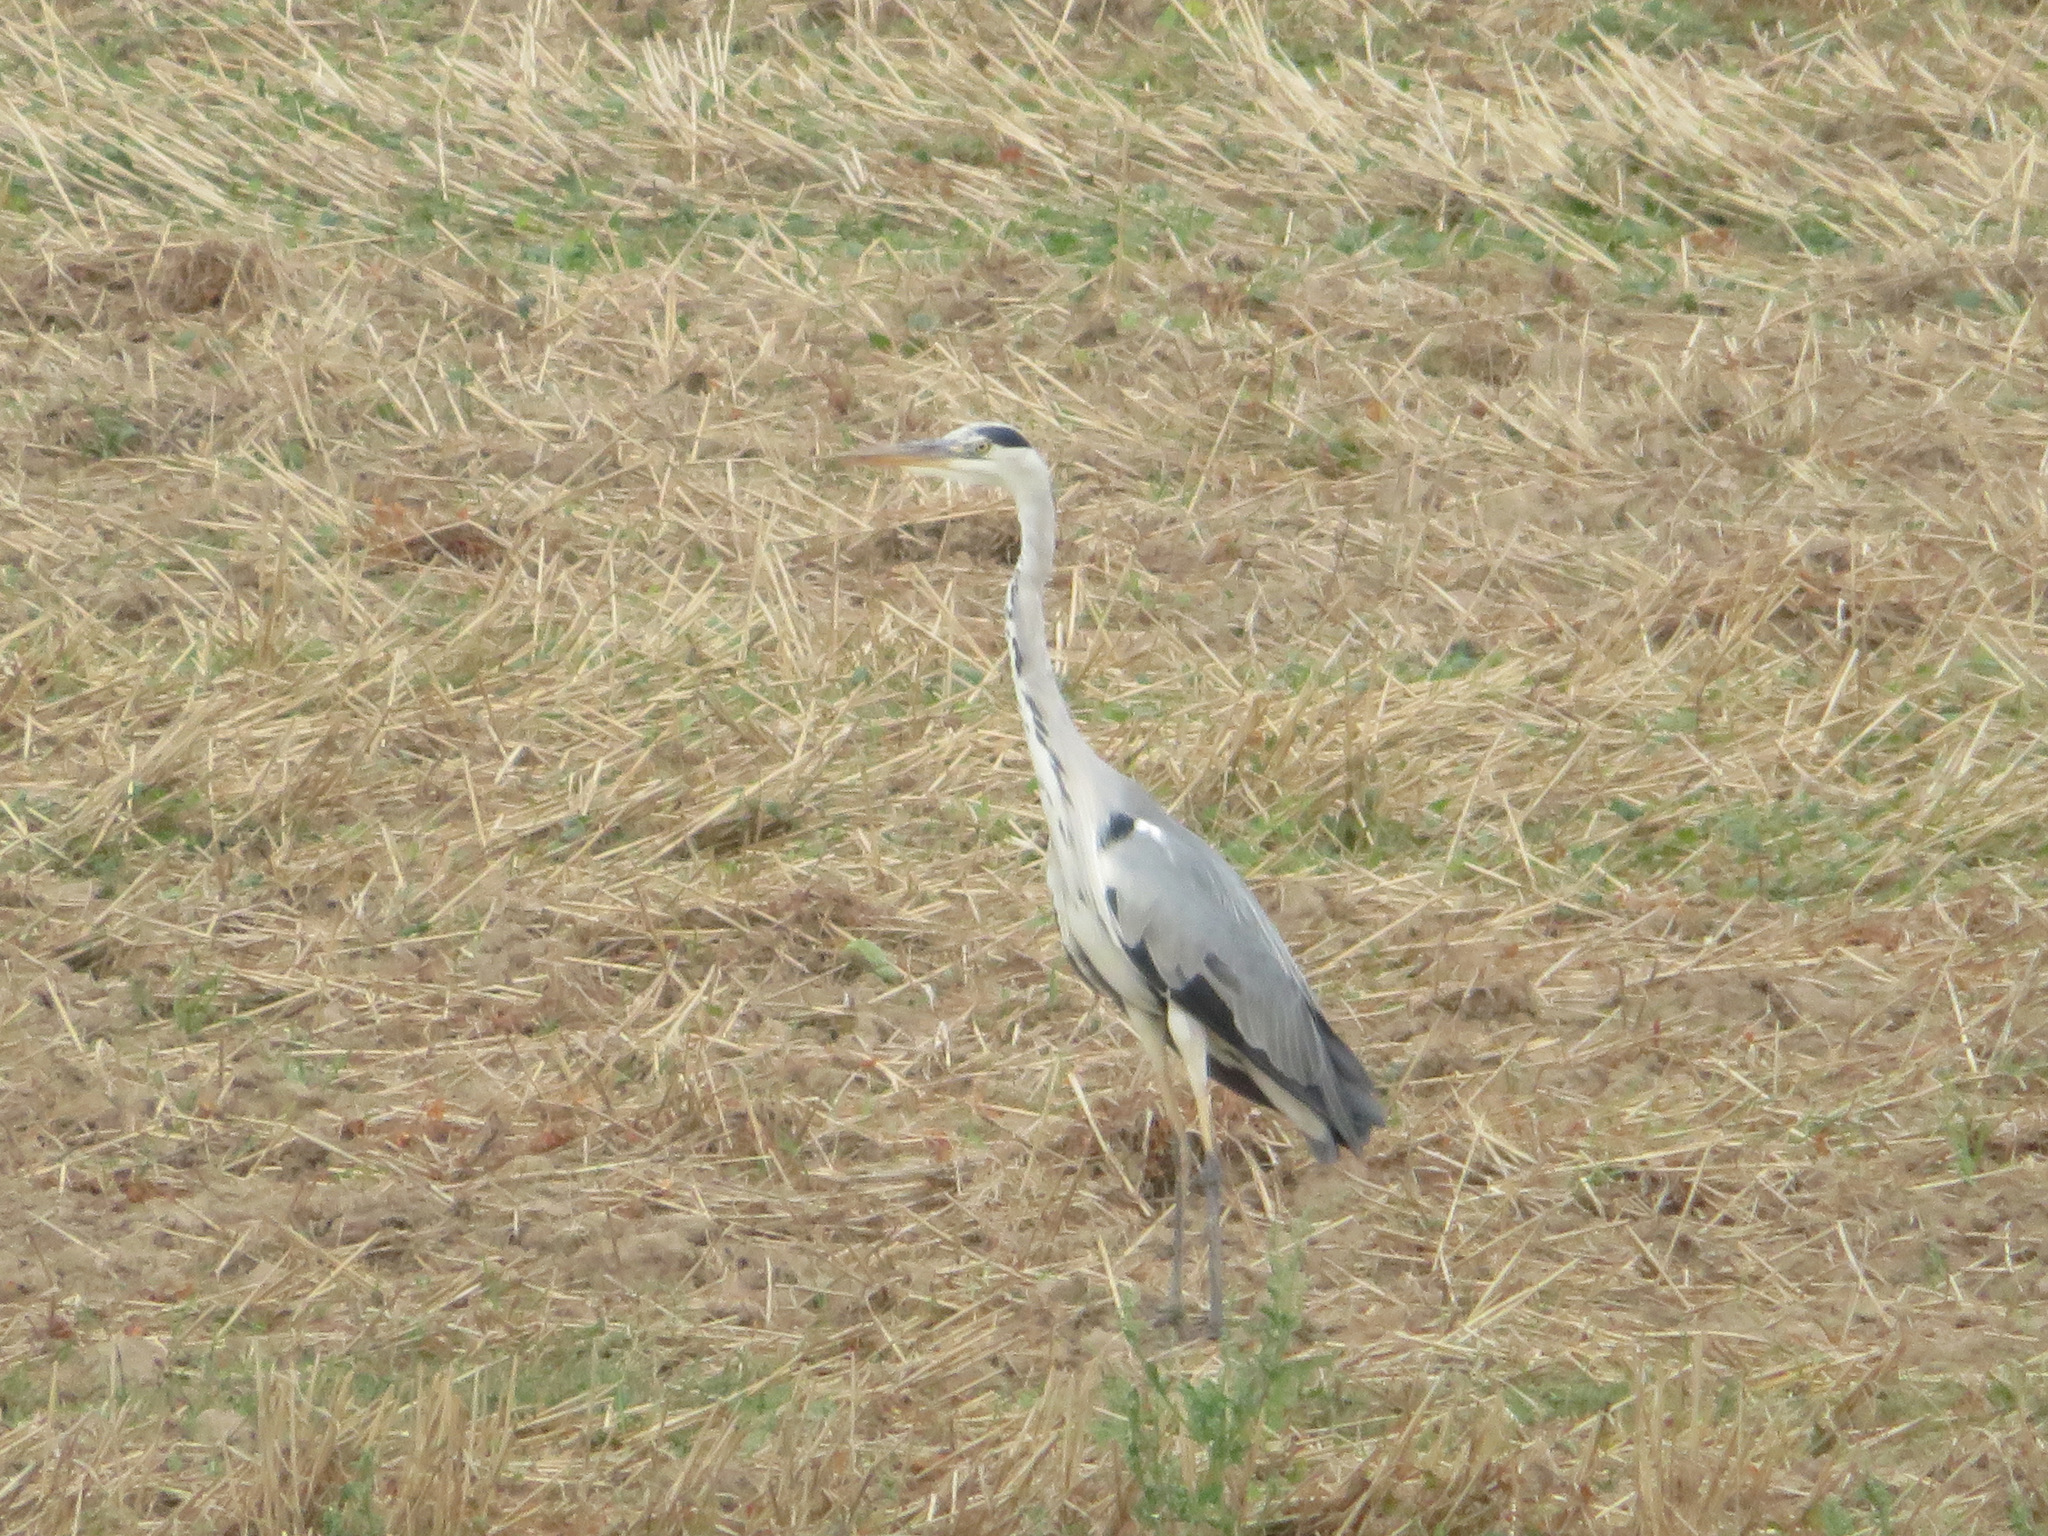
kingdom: Animalia
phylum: Chordata
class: Aves
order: Pelecaniformes
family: Ardeidae
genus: Ardea
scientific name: Ardea cinerea
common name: Grey heron
